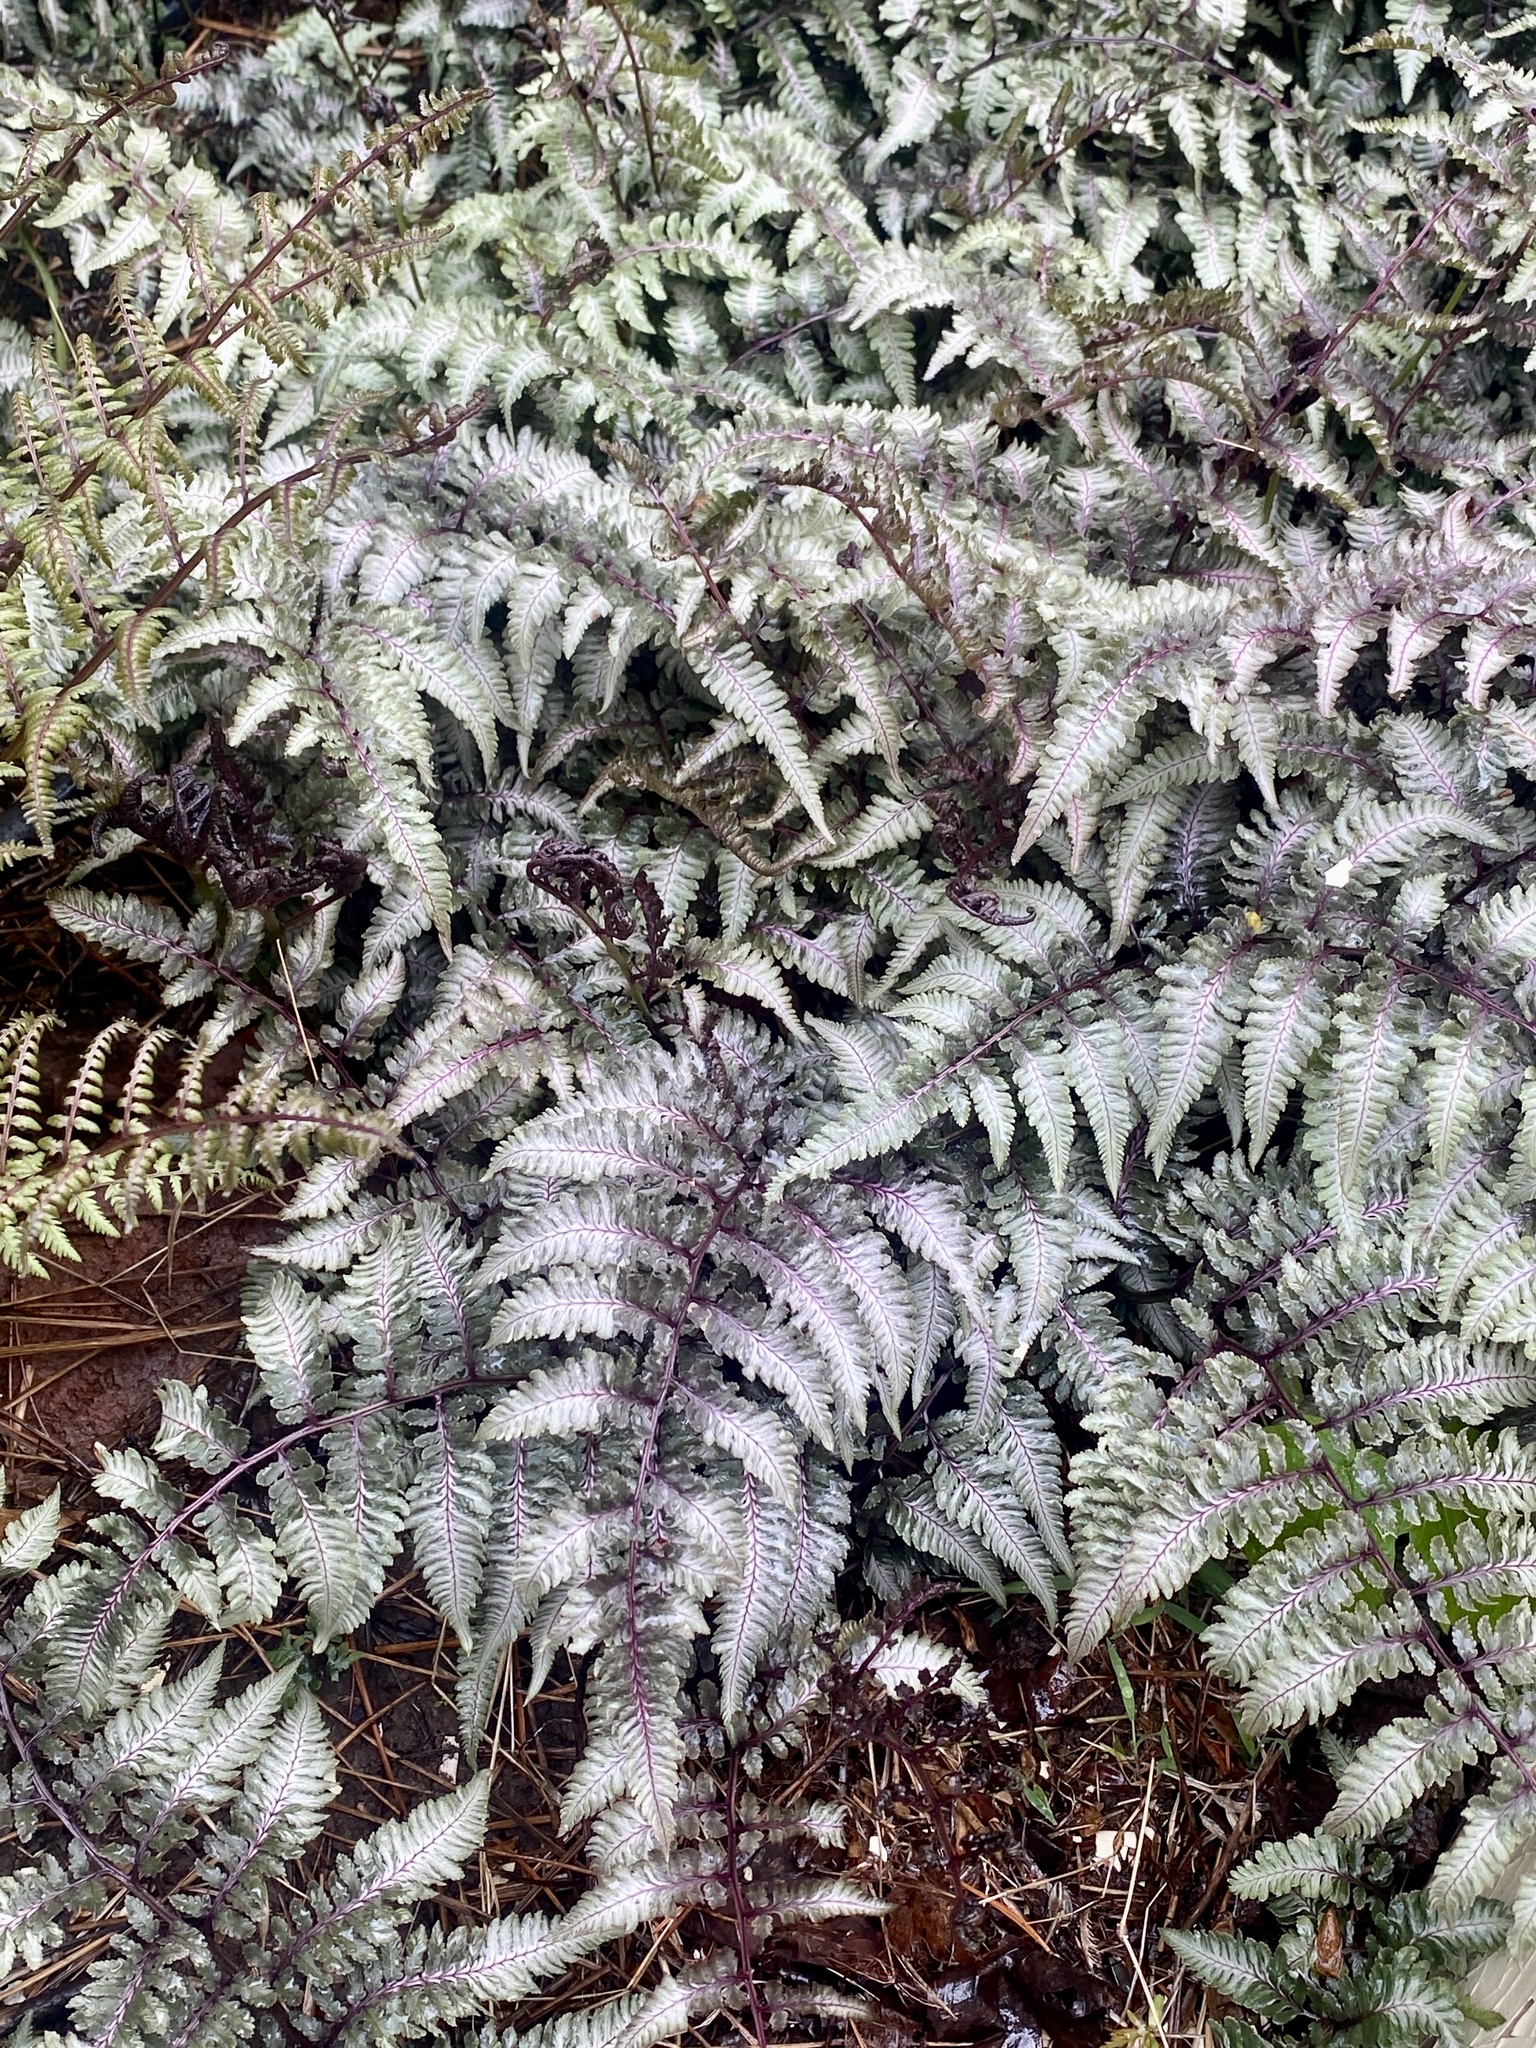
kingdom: Plantae
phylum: Tracheophyta
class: Polypodiopsida
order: Polypodiales
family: Athyriaceae
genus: Anisocampium
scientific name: Anisocampium niponicum
